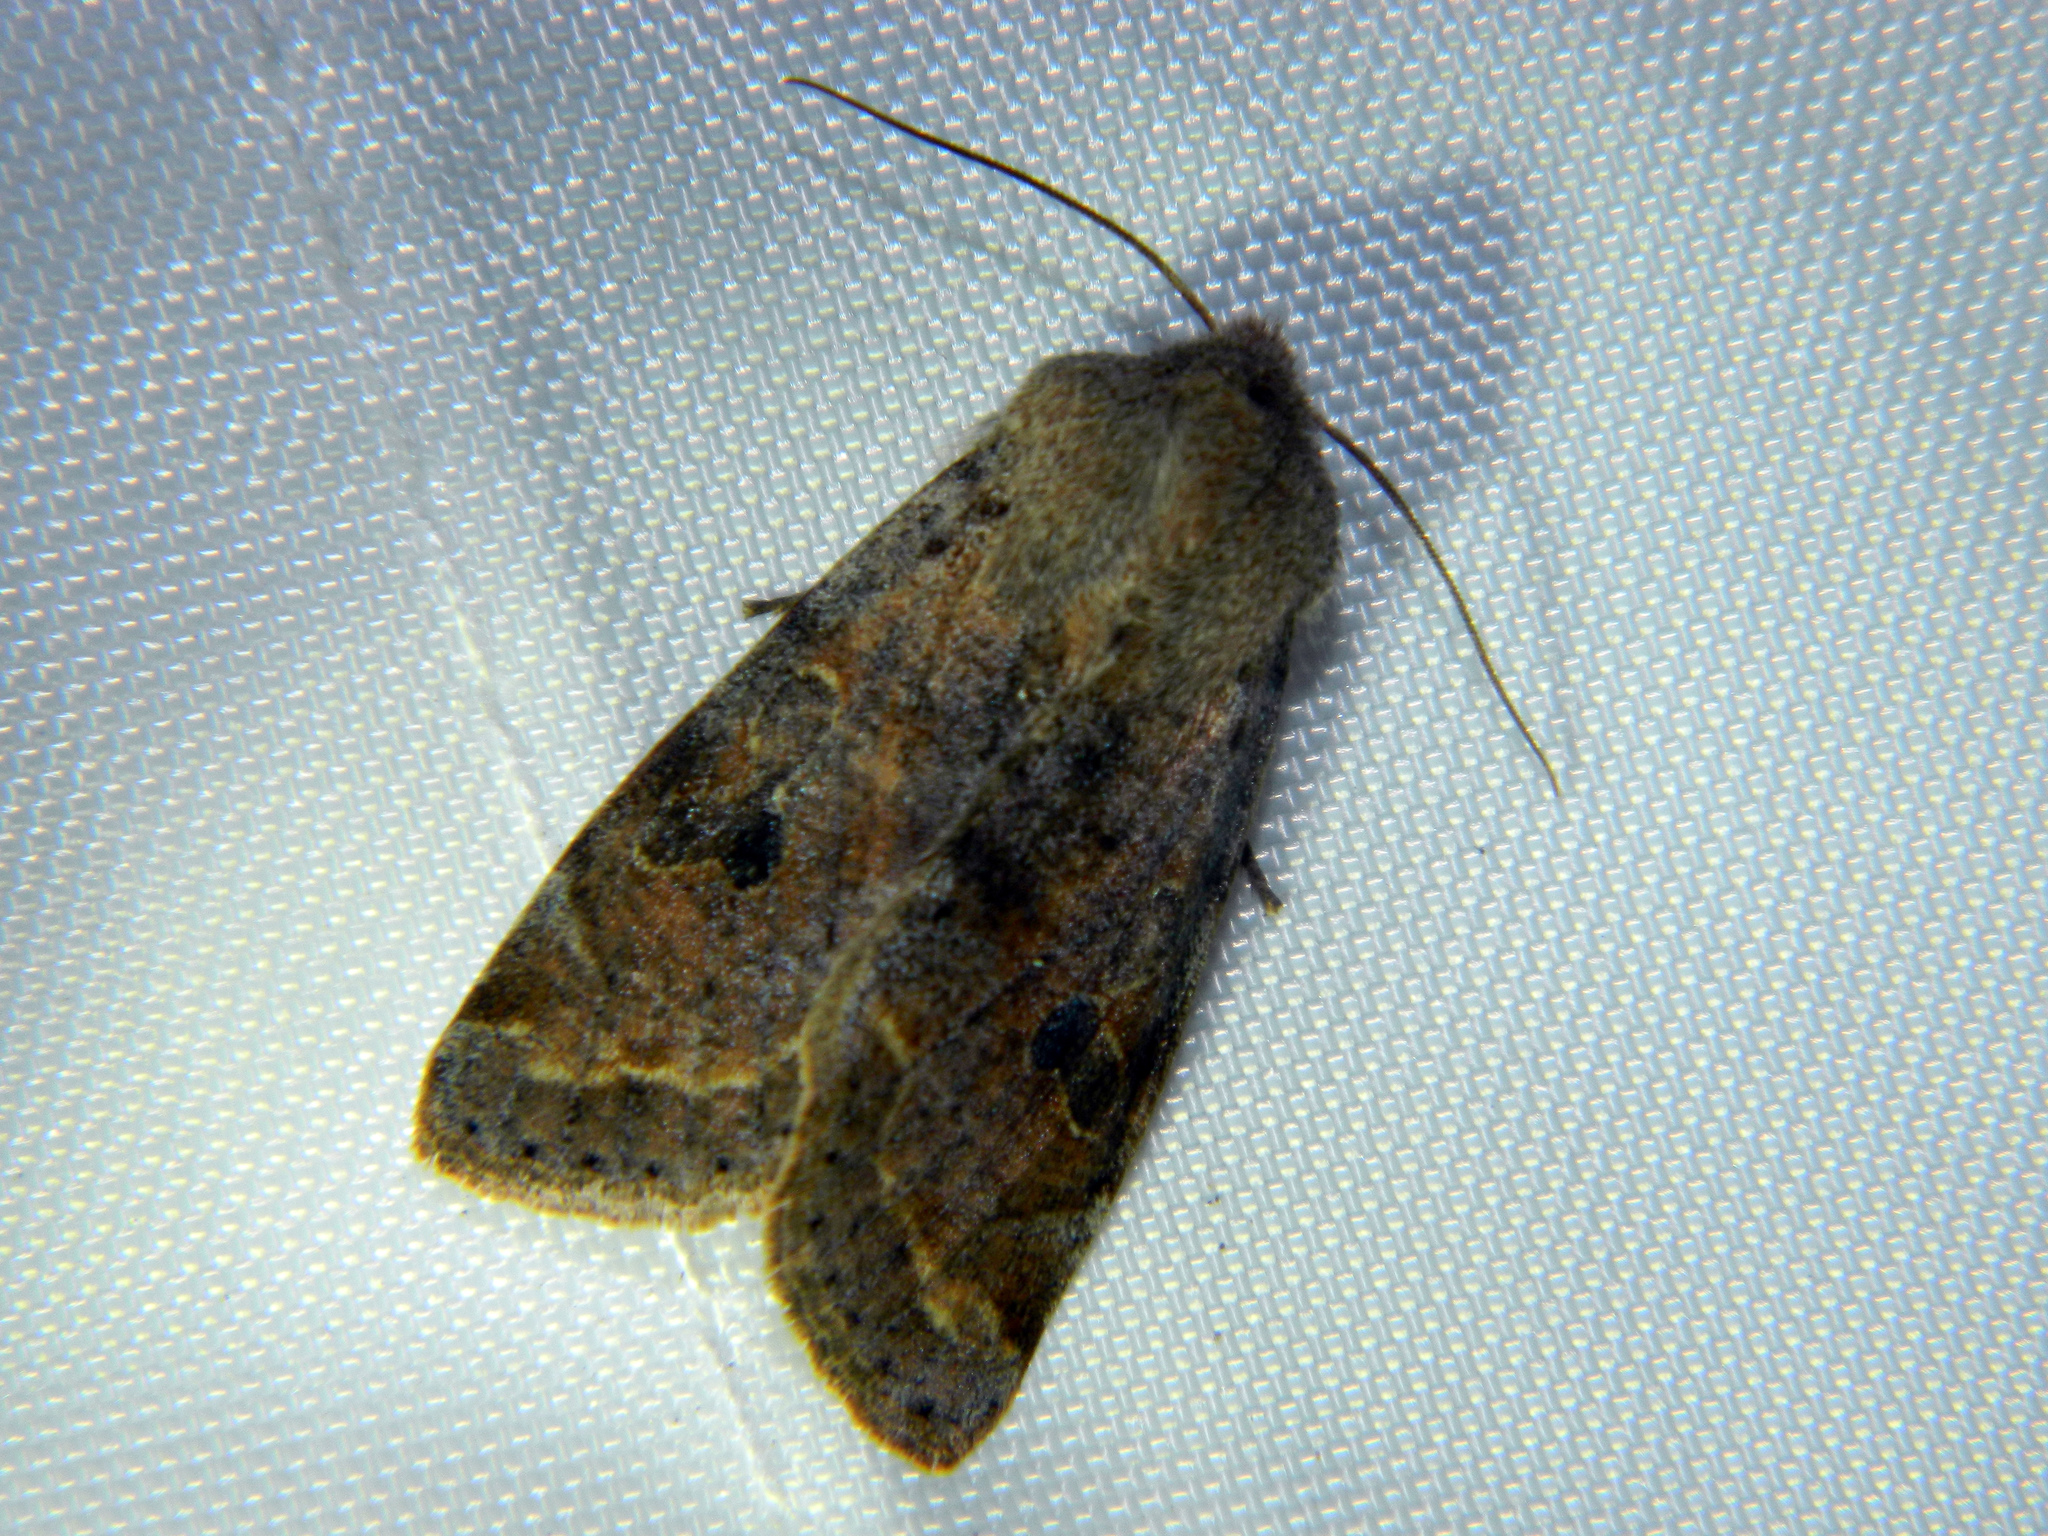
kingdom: Animalia
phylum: Arthropoda
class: Insecta
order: Lepidoptera
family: Noctuidae
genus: Orthosia
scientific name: Orthosia hibisci
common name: Green fruitworm
